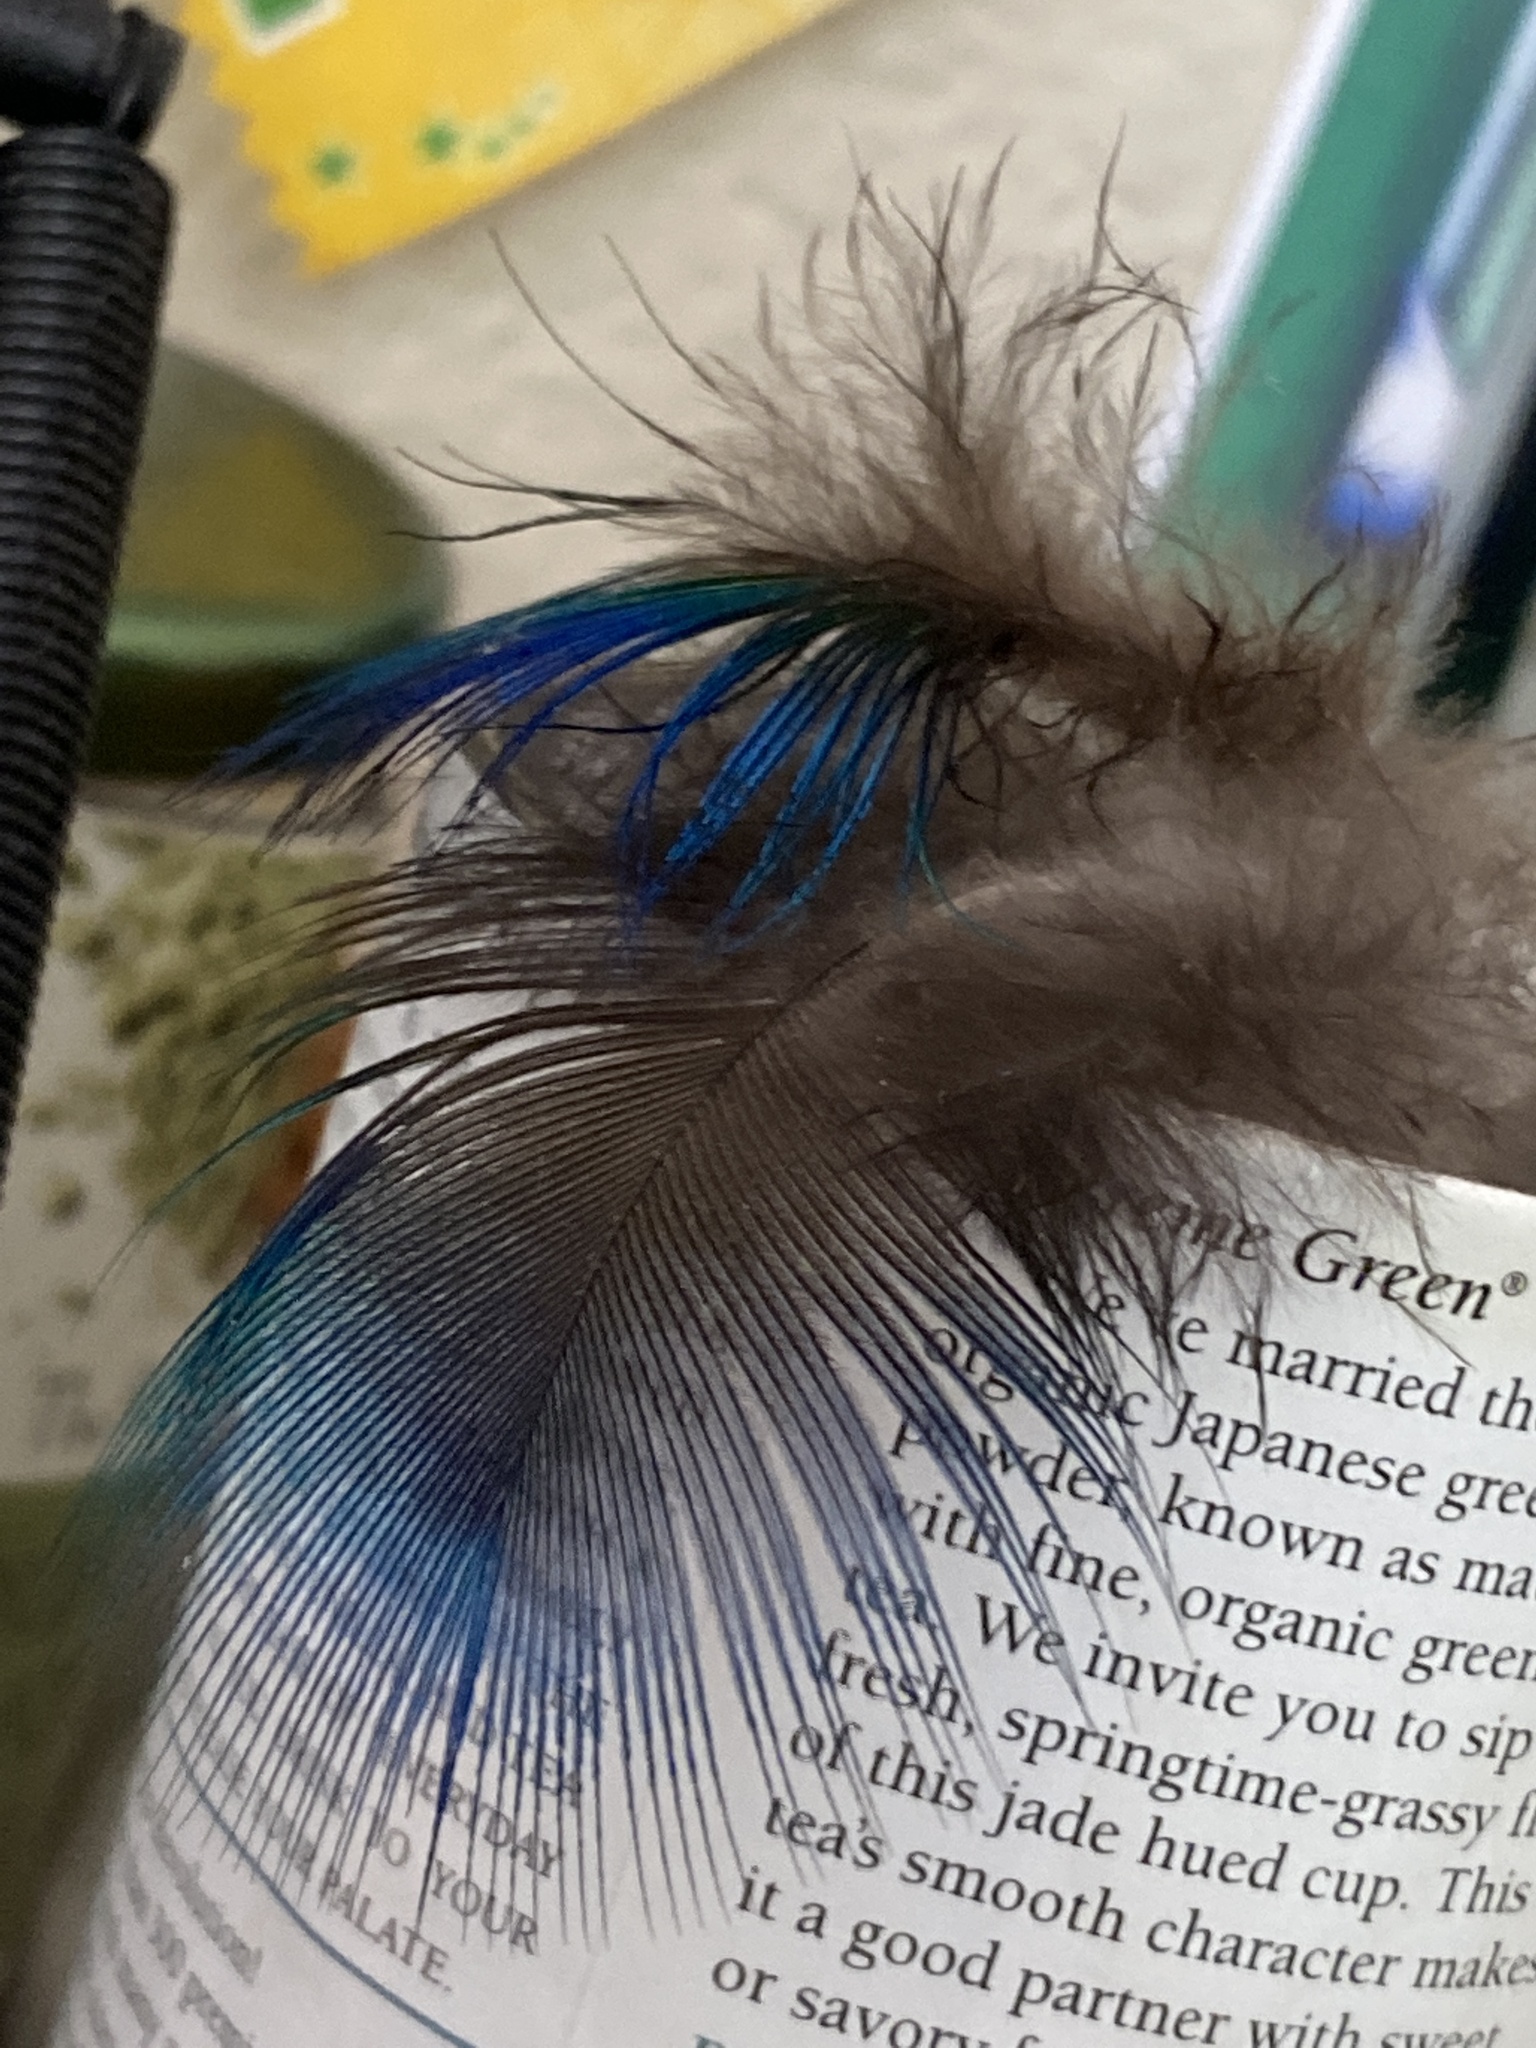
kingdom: Animalia
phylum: Chordata
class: Aves
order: Galliformes
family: Phasianidae
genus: Pavo
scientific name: Pavo cristatus
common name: Indian peafowl
